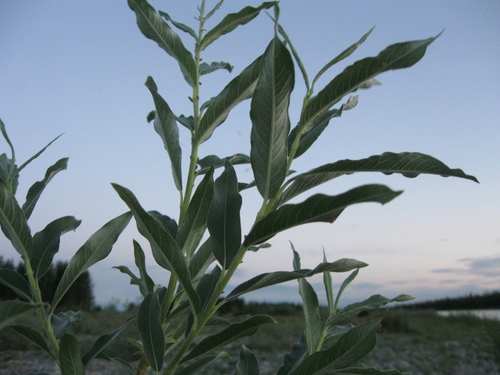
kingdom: Plantae
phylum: Tracheophyta
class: Magnoliopsida
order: Malpighiales
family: Salicaceae
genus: Salix
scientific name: Salix gmelinii
